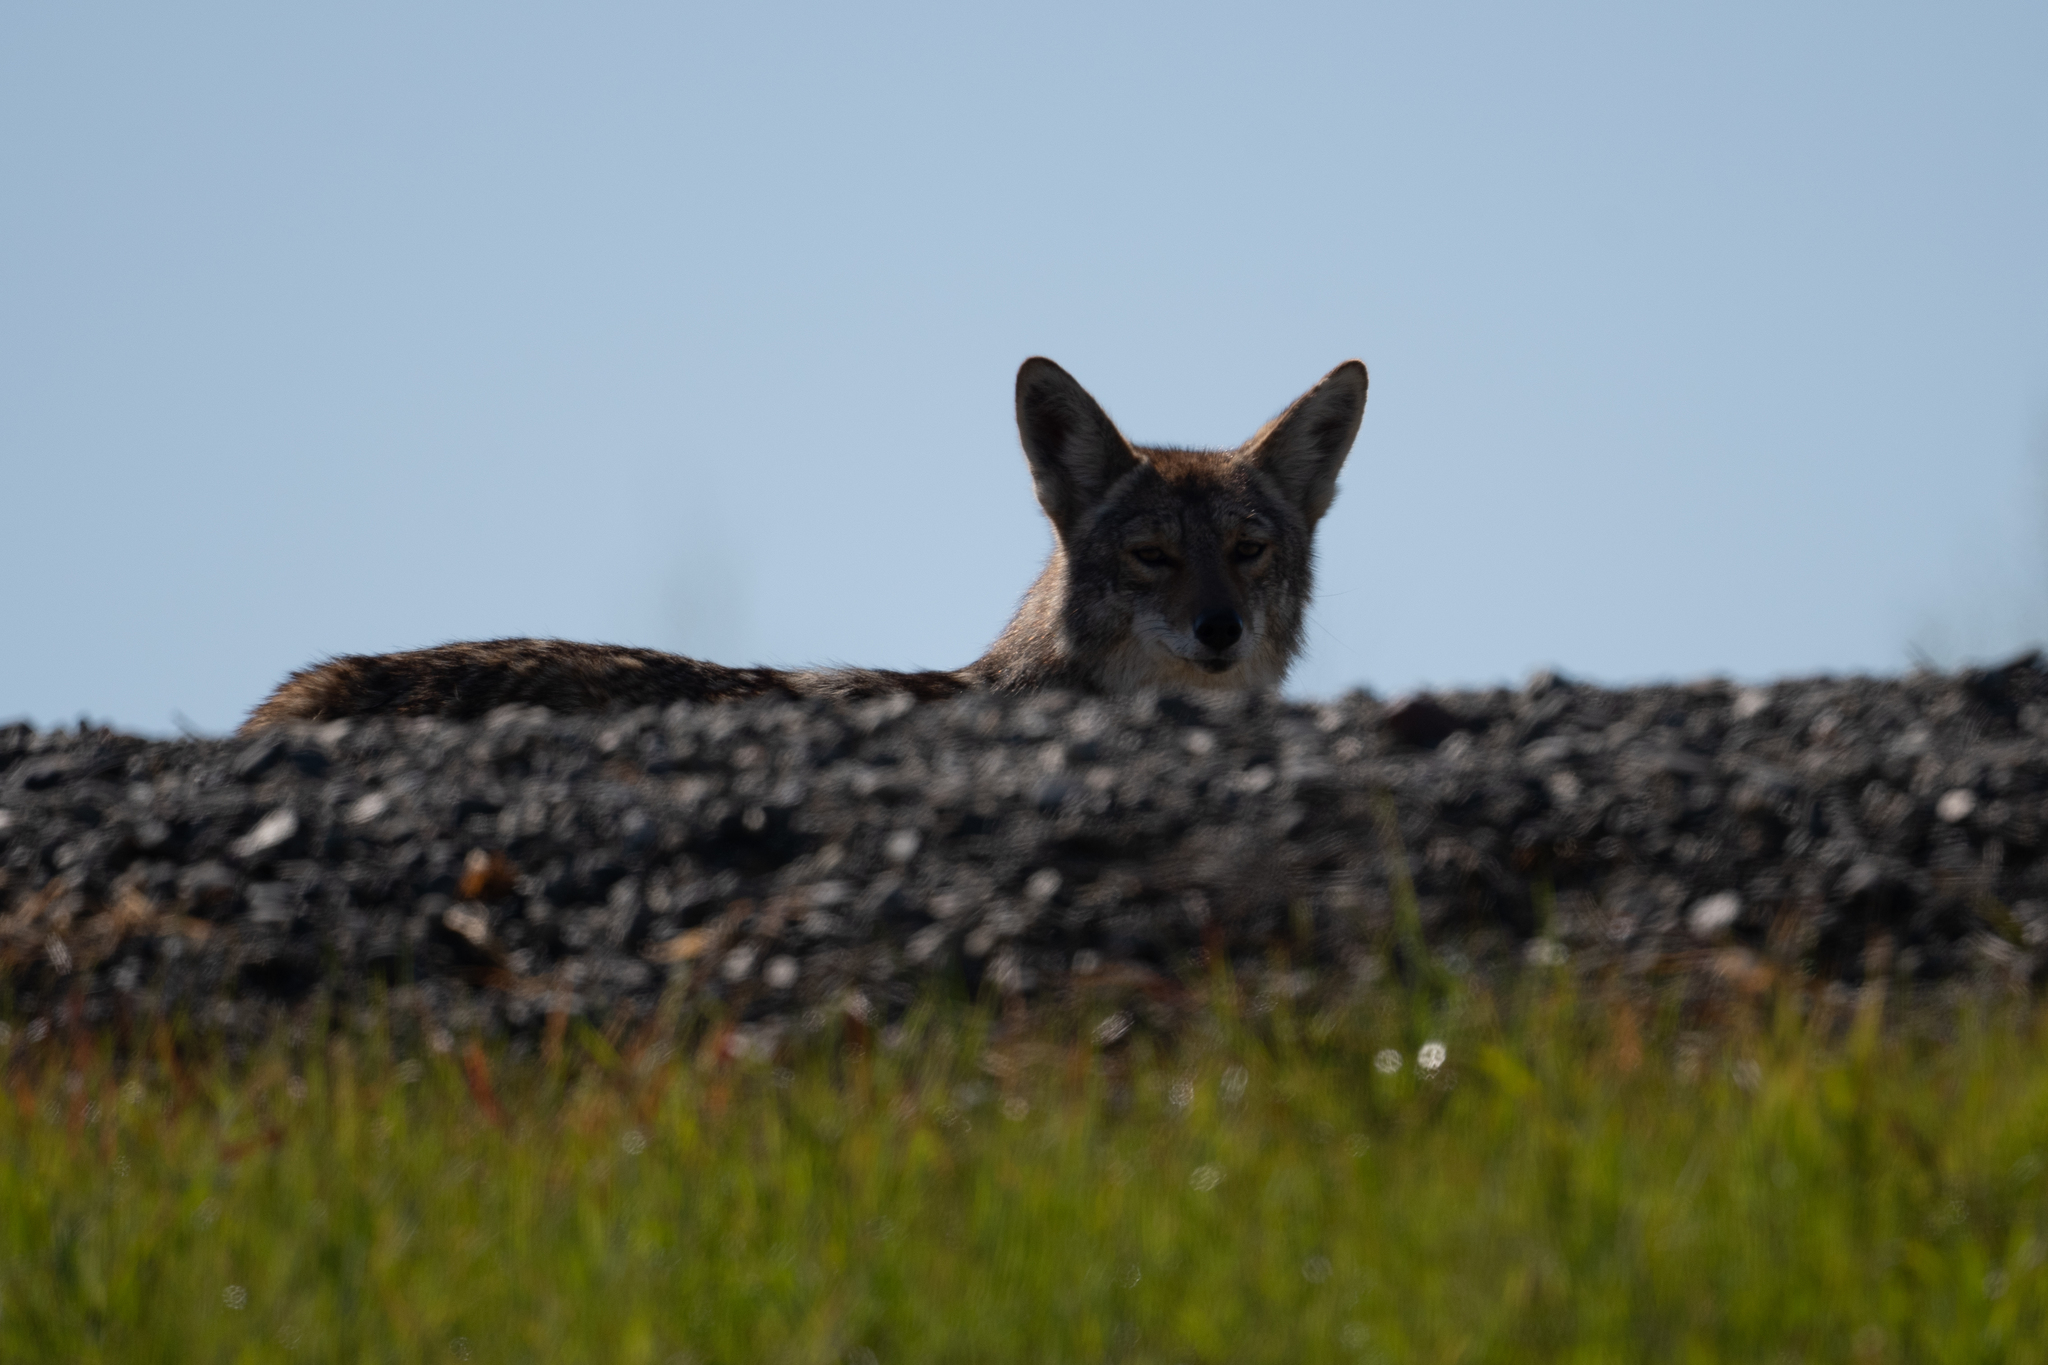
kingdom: Animalia
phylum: Chordata
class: Mammalia
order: Carnivora
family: Canidae
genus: Canis
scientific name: Canis latrans
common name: Coyote
